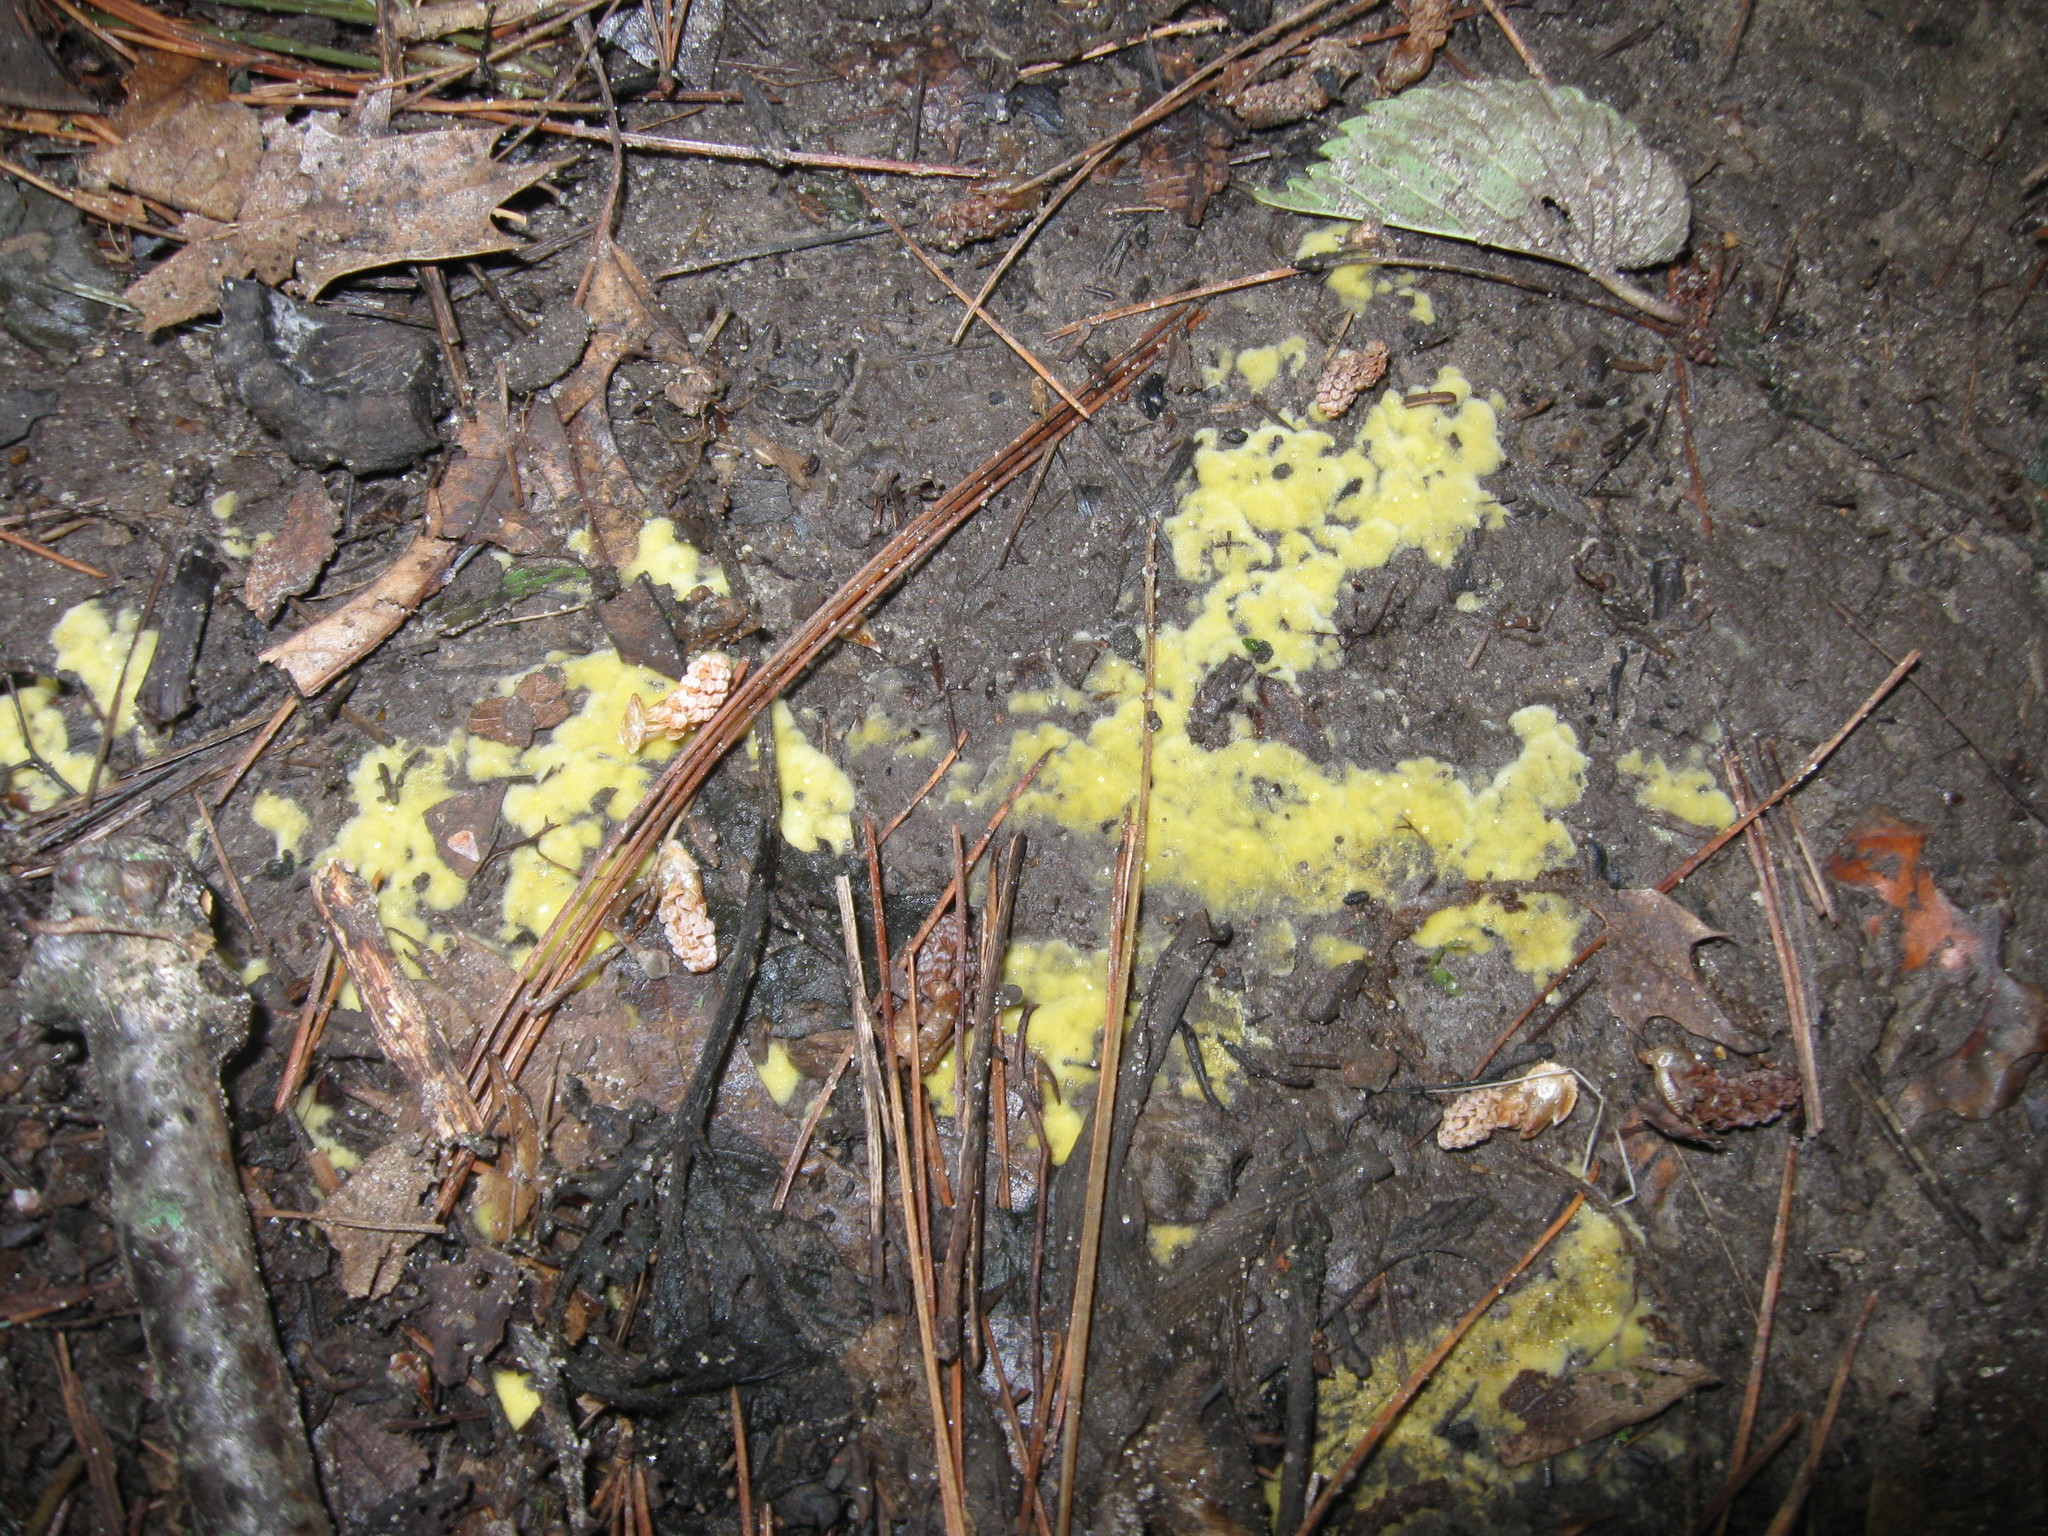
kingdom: Protozoa
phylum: Mycetozoa
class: Myxomycetes
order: Physarales
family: Physaraceae
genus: Fuligo
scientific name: Fuligo septica
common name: Dog vomit slime mold
